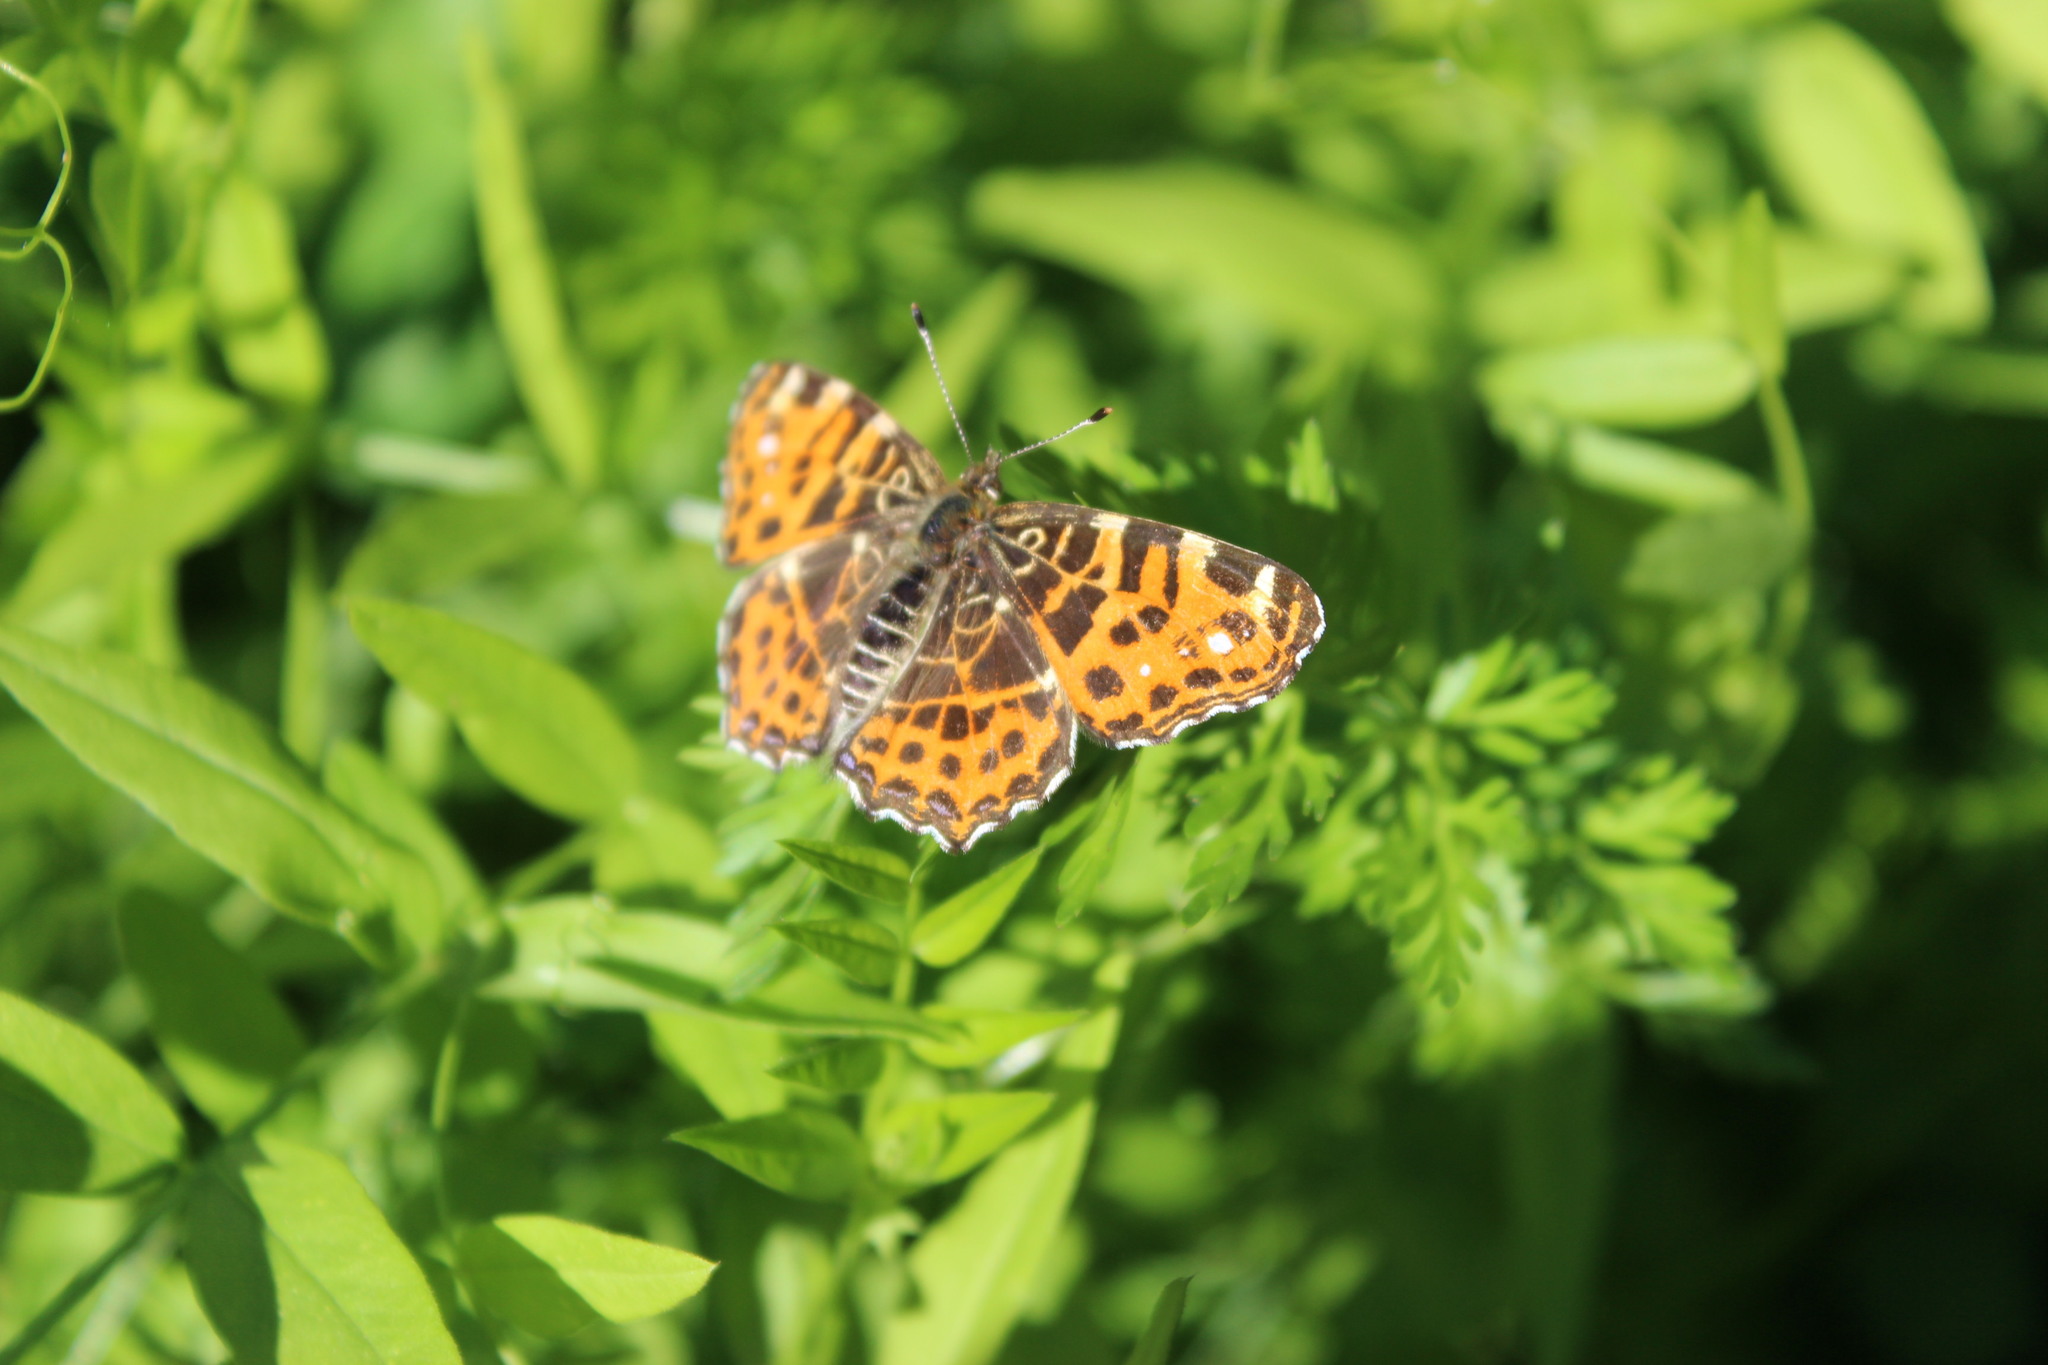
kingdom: Animalia
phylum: Arthropoda
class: Insecta
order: Lepidoptera
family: Nymphalidae
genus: Araschnia
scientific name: Araschnia levana
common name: Map butterfly
